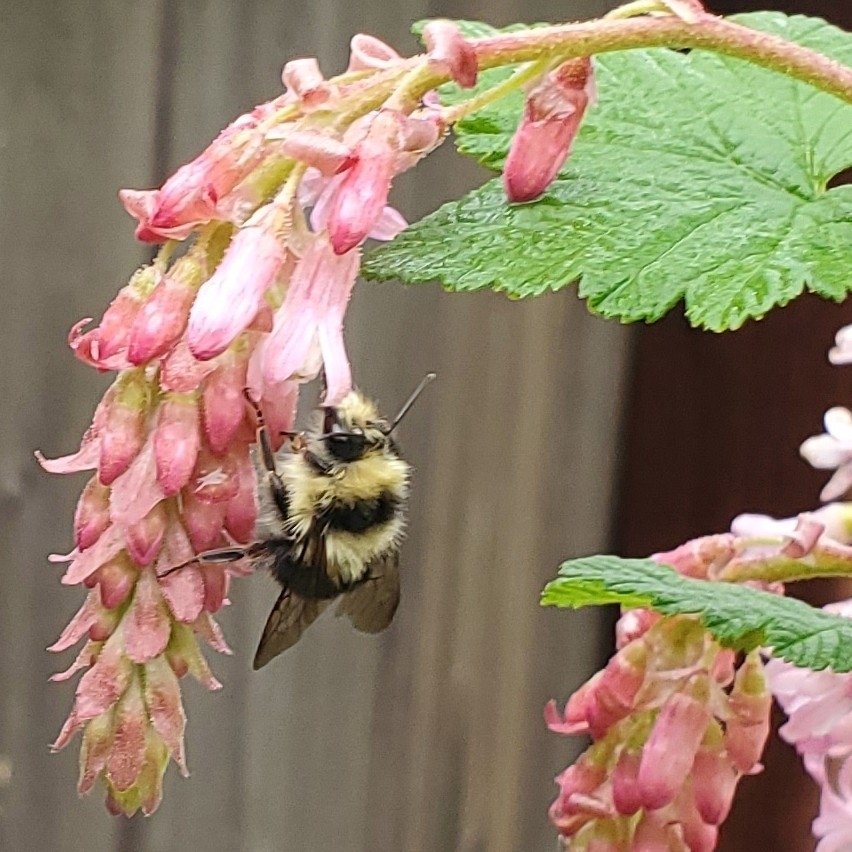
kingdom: Animalia
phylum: Arthropoda
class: Insecta
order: Hymenoptera
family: Apidae
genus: Bombus
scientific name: Bombus melanopygus
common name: Black tail bumble bee
